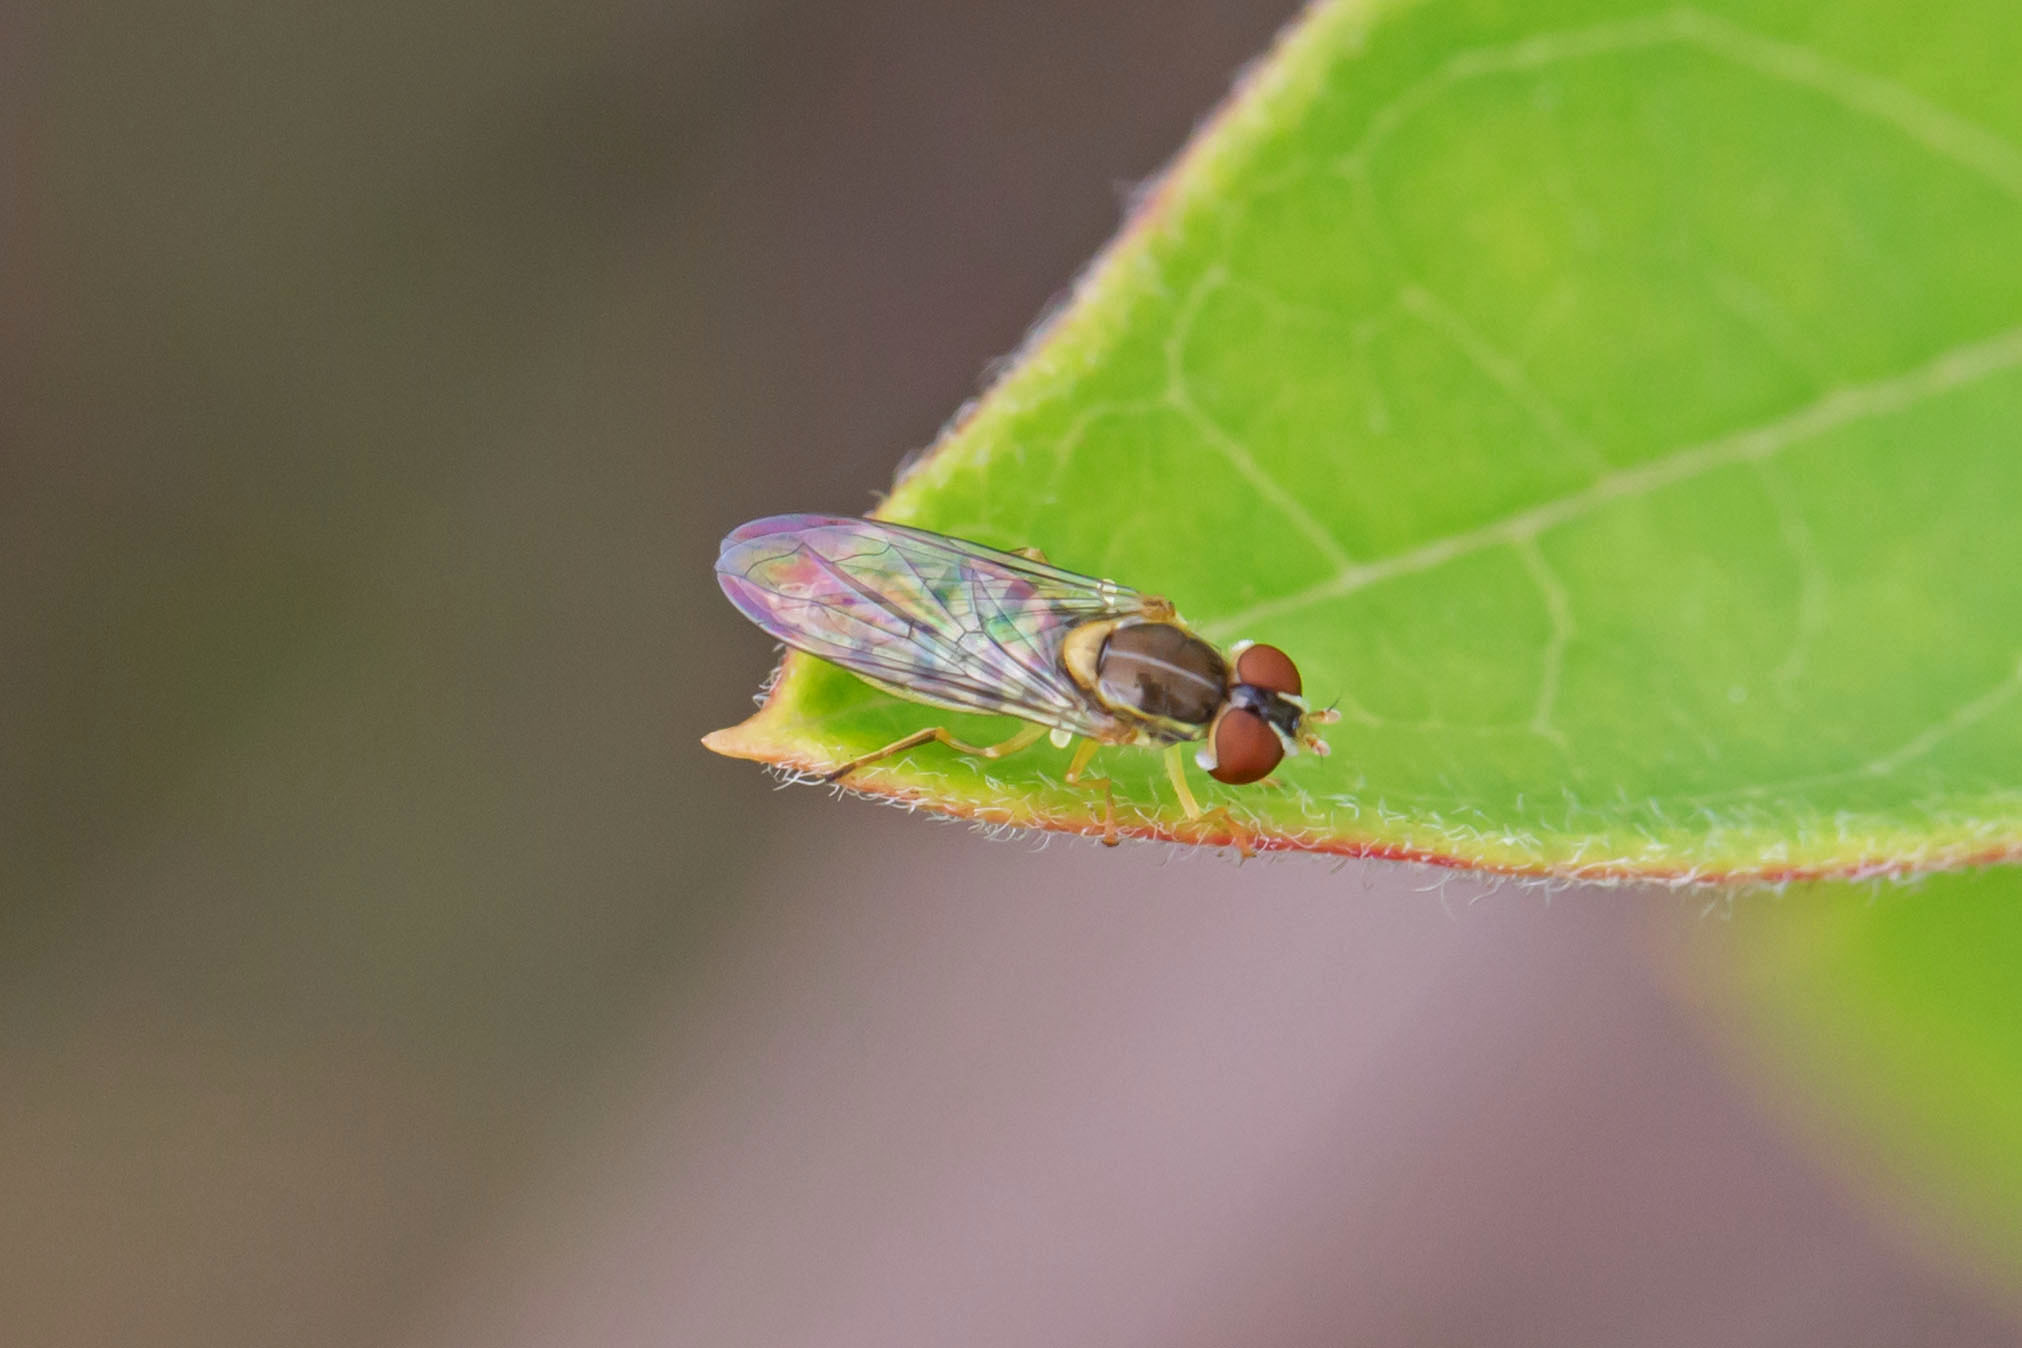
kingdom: Animalia
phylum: Arthropoda
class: Insecta
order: Diptera
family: Syrphidae
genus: Toxomerus
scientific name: Toxomerus marginatus
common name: Syrphid fly
